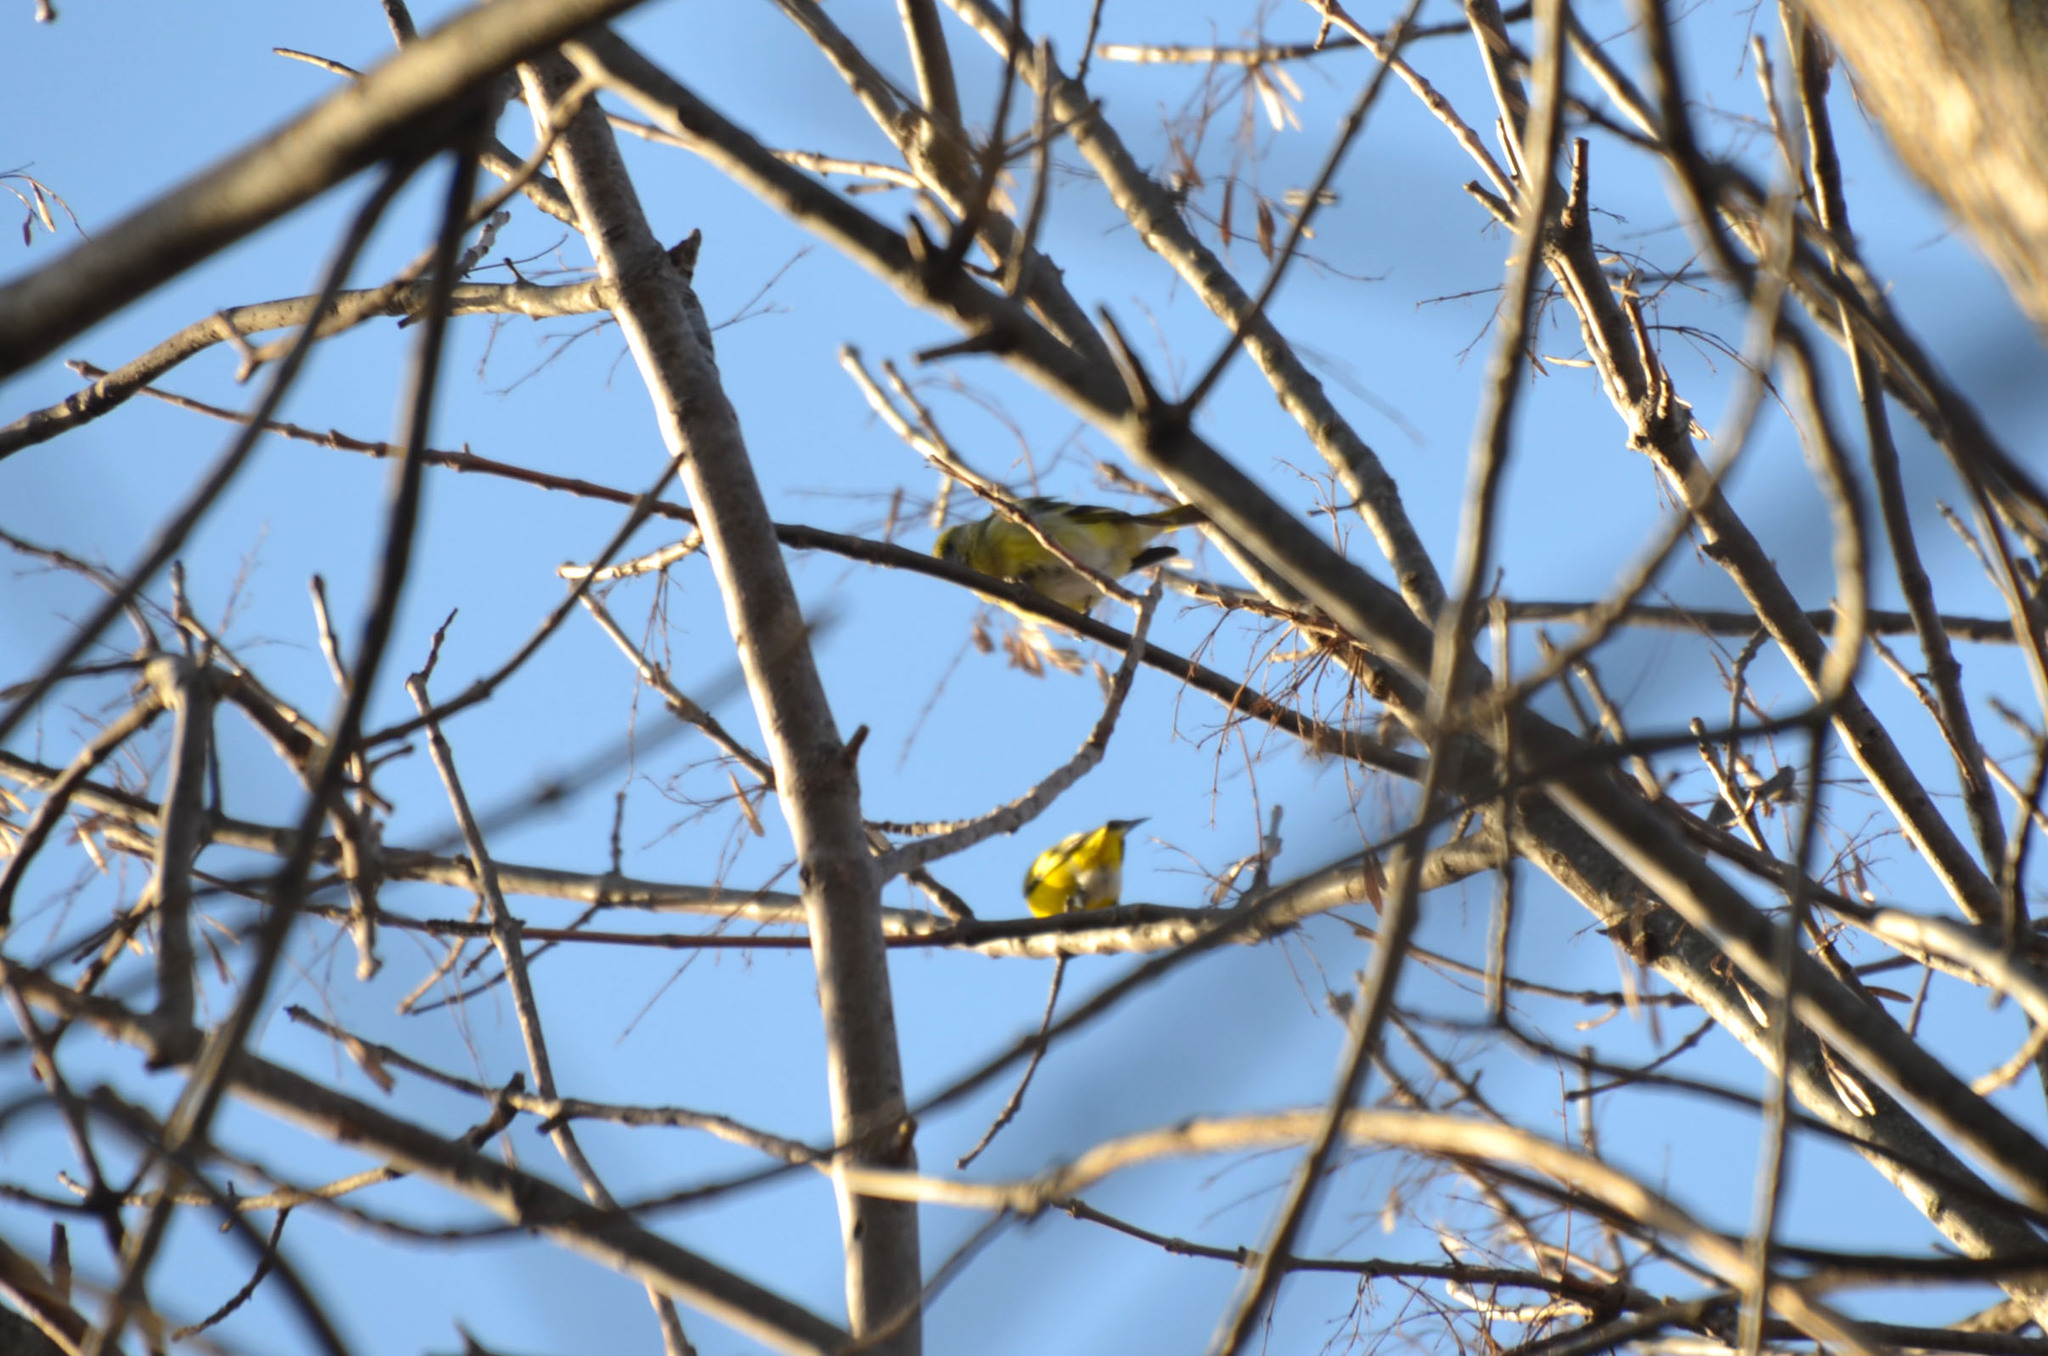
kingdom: Animalia
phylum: Chordata
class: Aves
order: Passeriformes
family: Fringillidae
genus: Spinus
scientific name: Spinus magellanicus
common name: Hooded siskin
